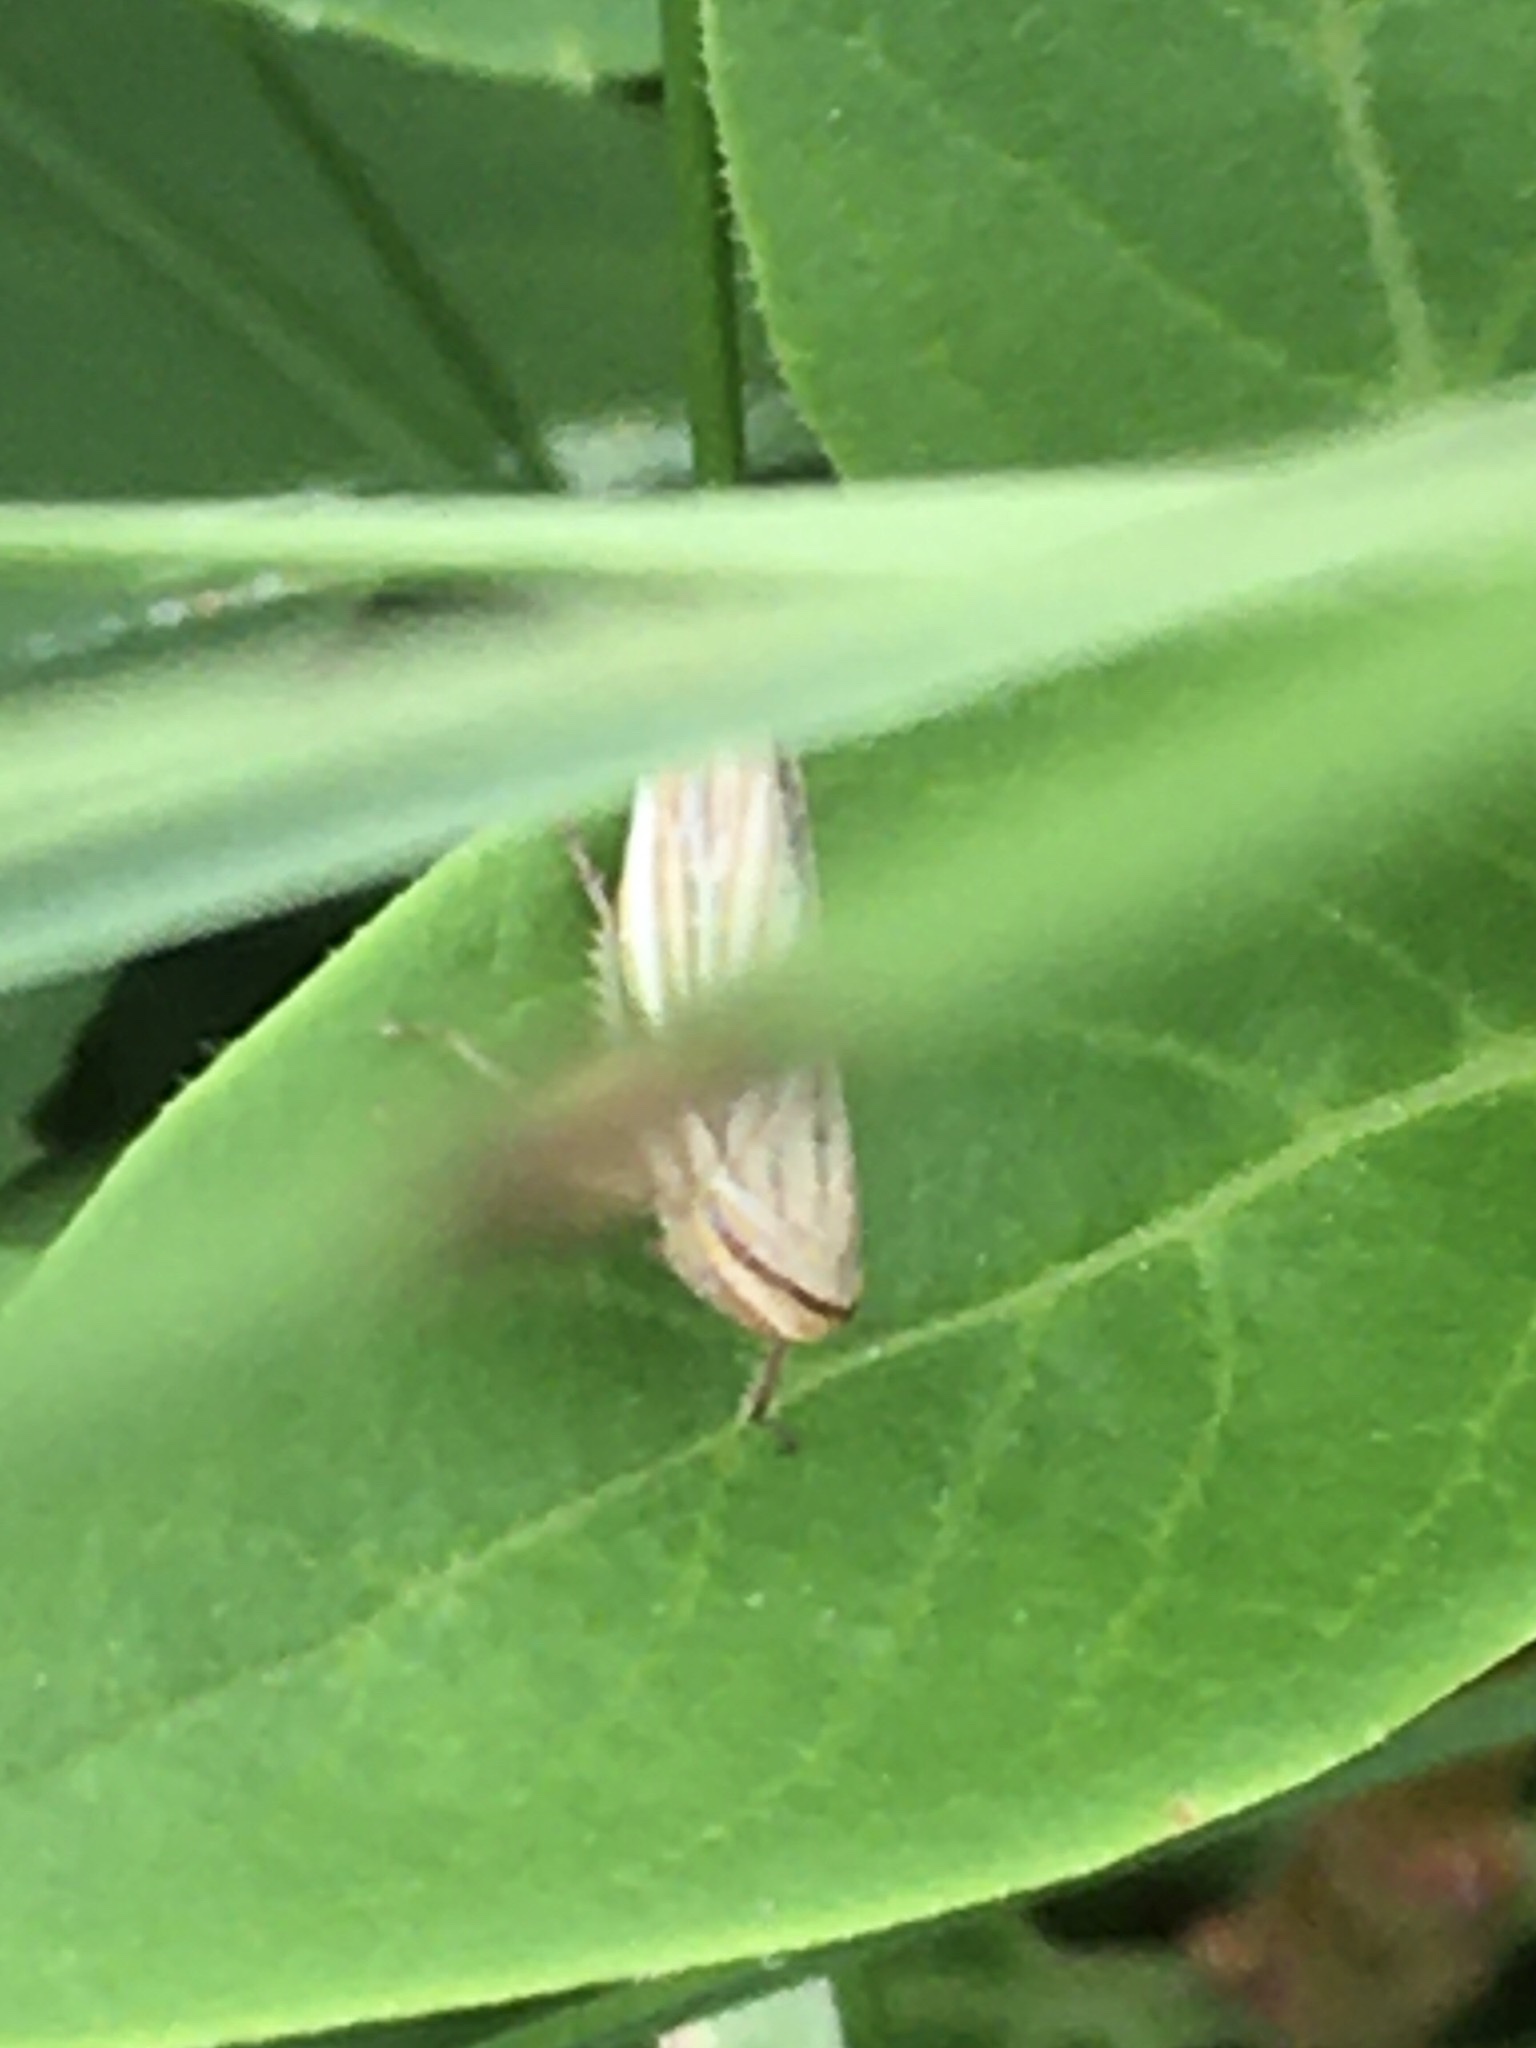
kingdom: Animalia
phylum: Arthropoda
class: Insecta
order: Hemiptera
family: Cicadellidae
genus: Athysanus
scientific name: Athysanus argentarius
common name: Silver leafhopper
